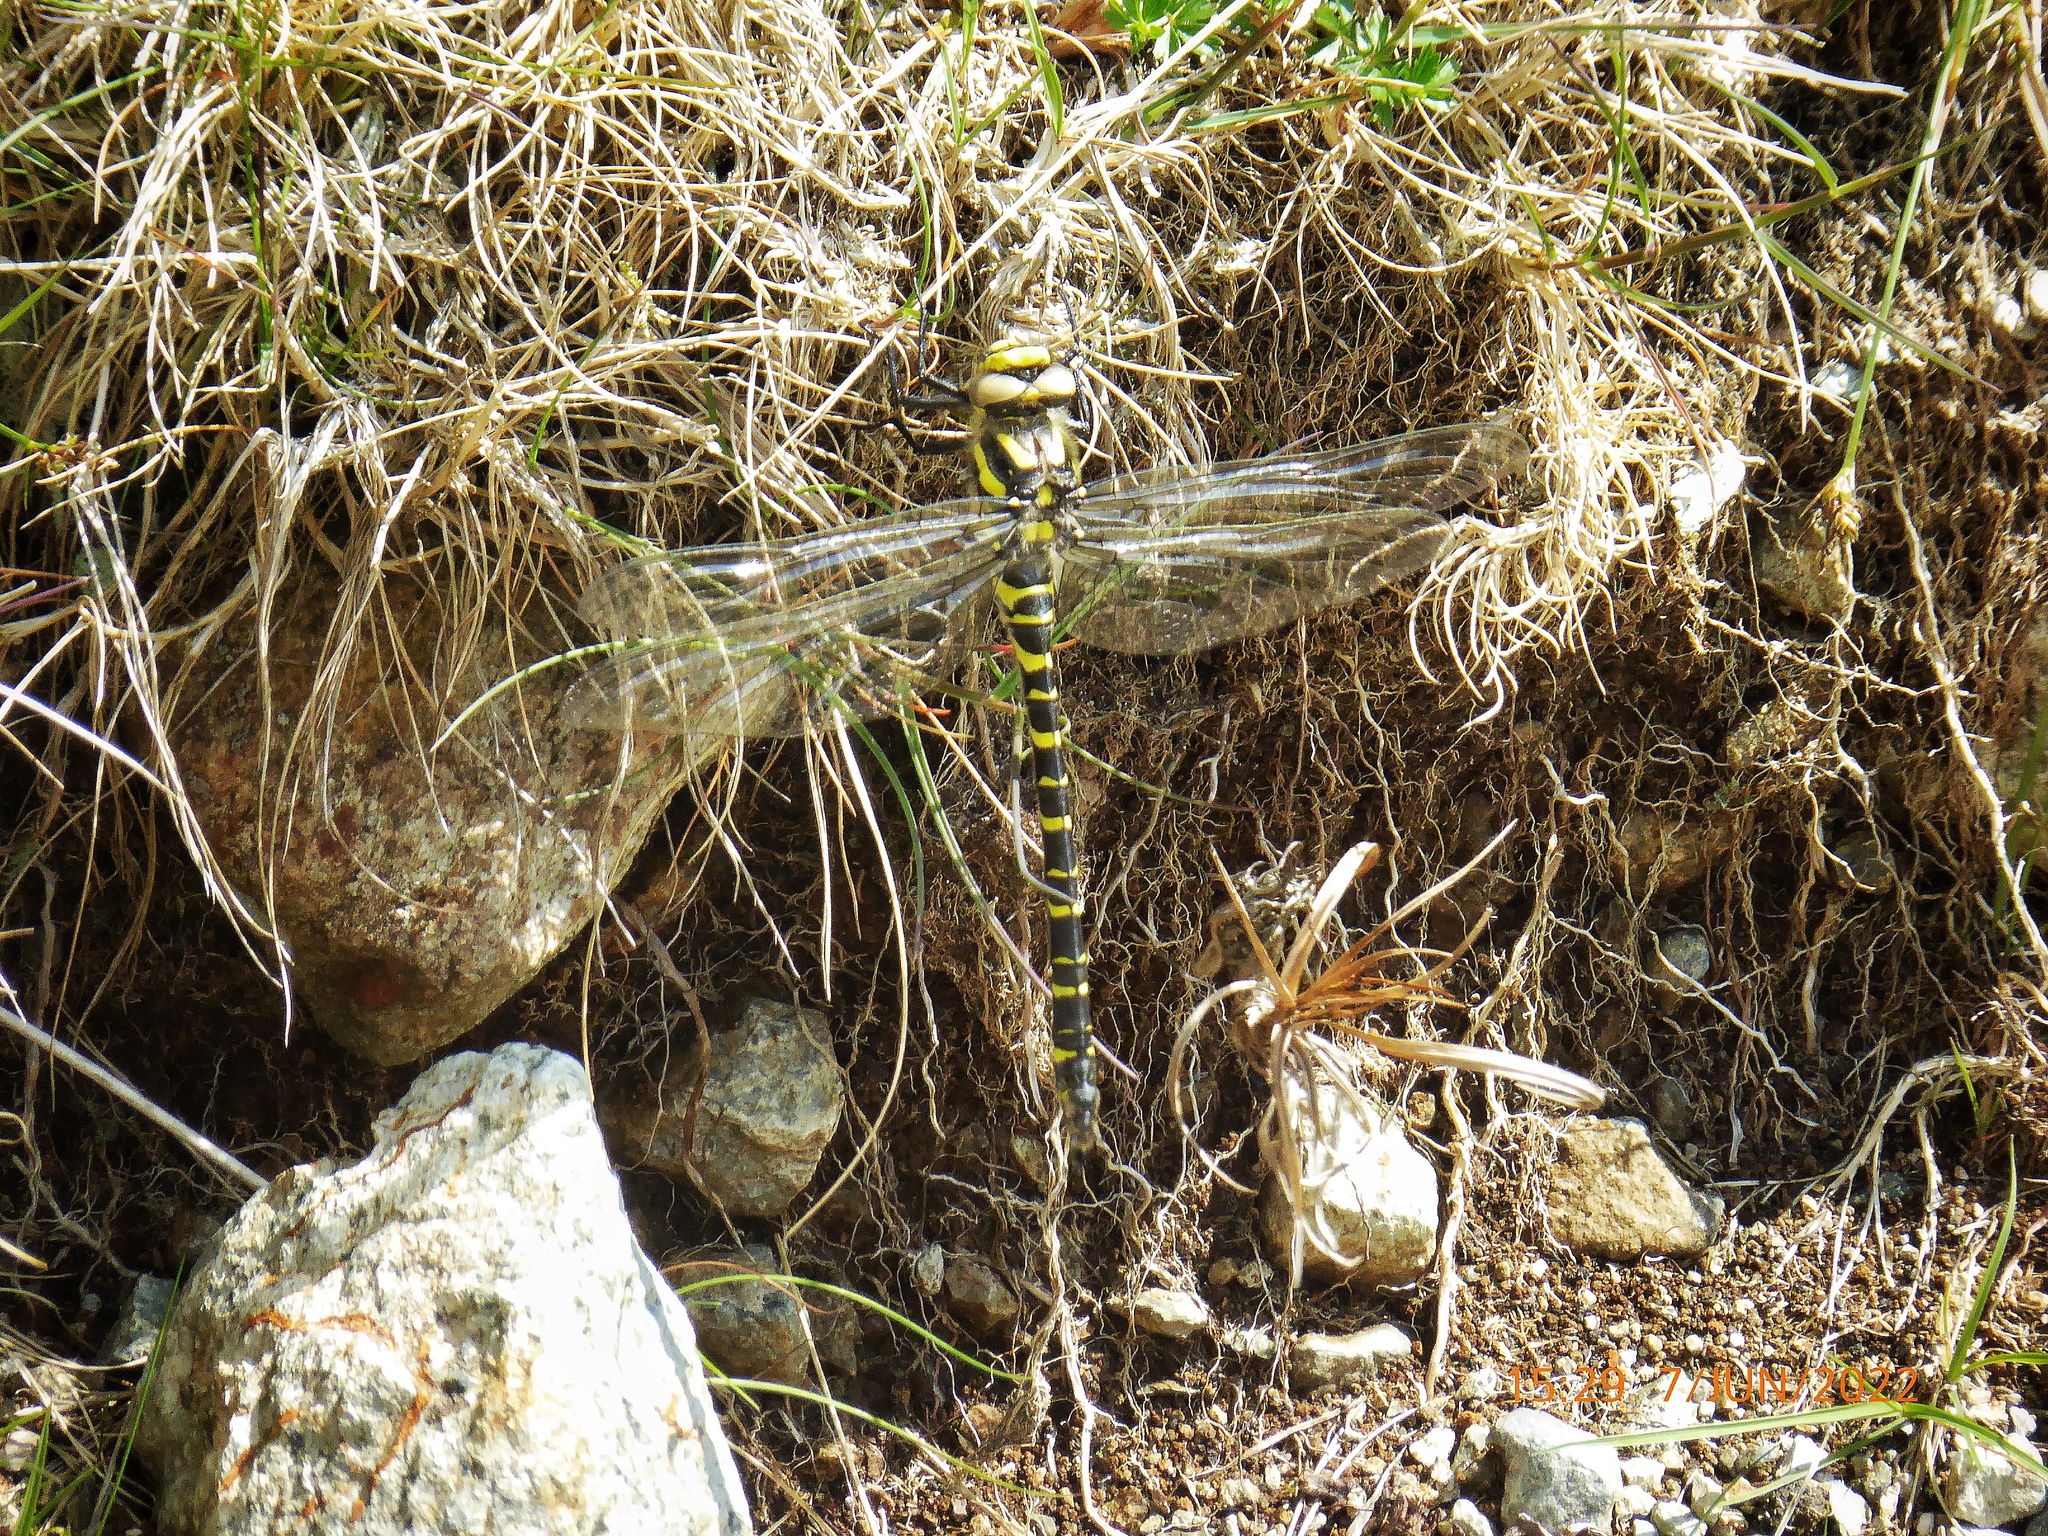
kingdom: Animalia
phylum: Arthropoda
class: Insecta
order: Odonata
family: Cordulegastridae
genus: Cordulegaster
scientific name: Cordulegaster boltonii
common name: Golden-ringed dragonfly
